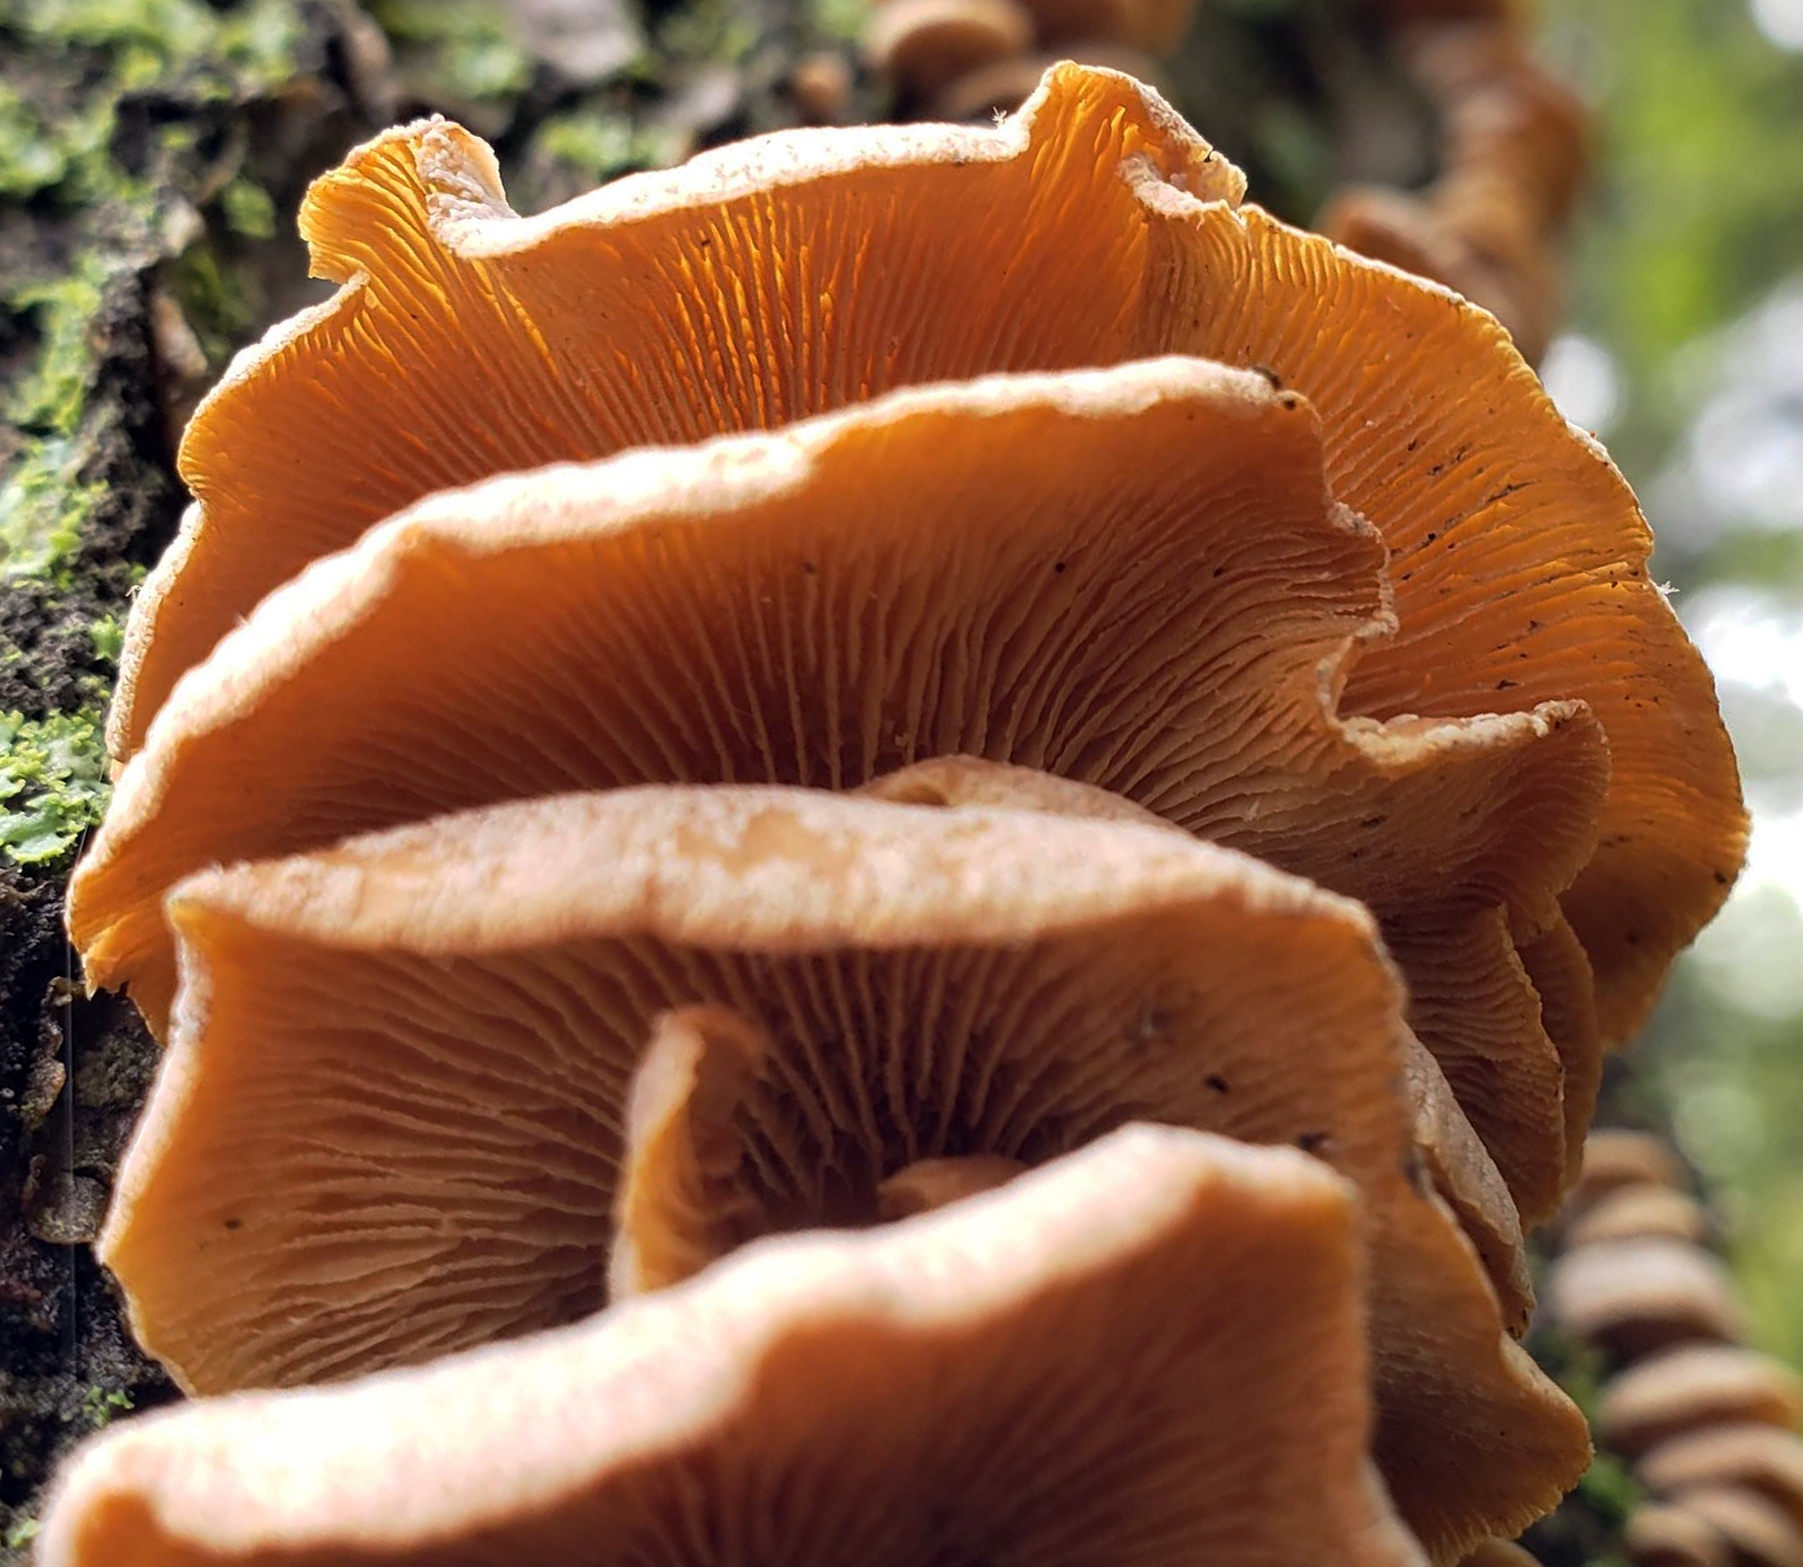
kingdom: Fungi
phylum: Basidiomycota
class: Agaricomycetes
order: Agaricales
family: Mycenaceae
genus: Panellus
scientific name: Panellus stipticus
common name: Bitter oysterling
